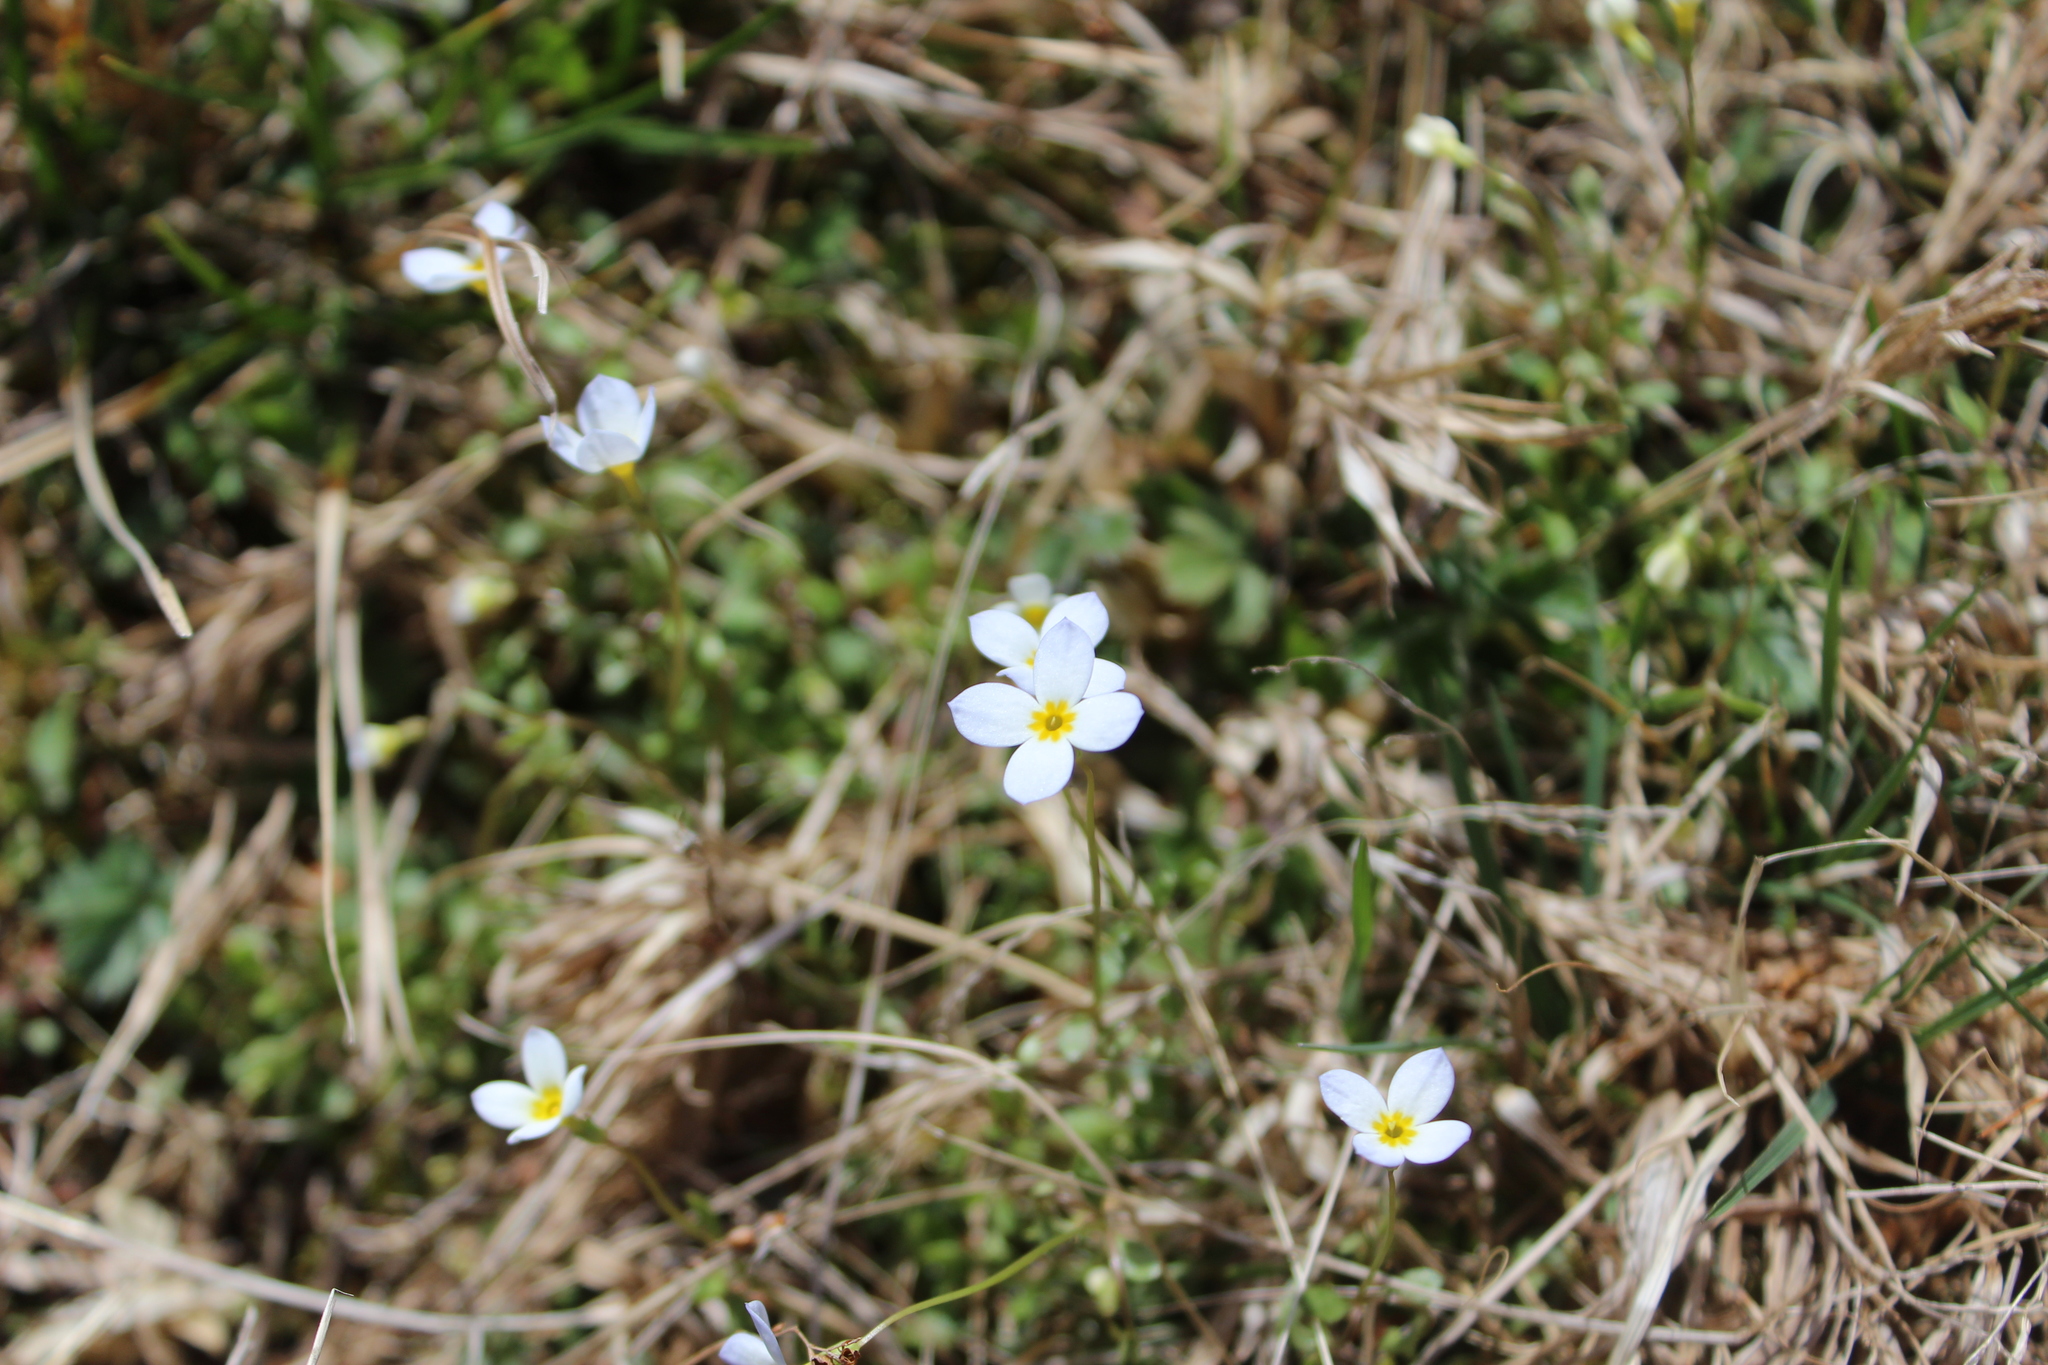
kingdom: Plantae
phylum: Tracheophyta
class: Magnoliopsida
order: Gentianales
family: Rubiaceae
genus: Houstonia
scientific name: Houstonia caerulea
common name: Bluets
